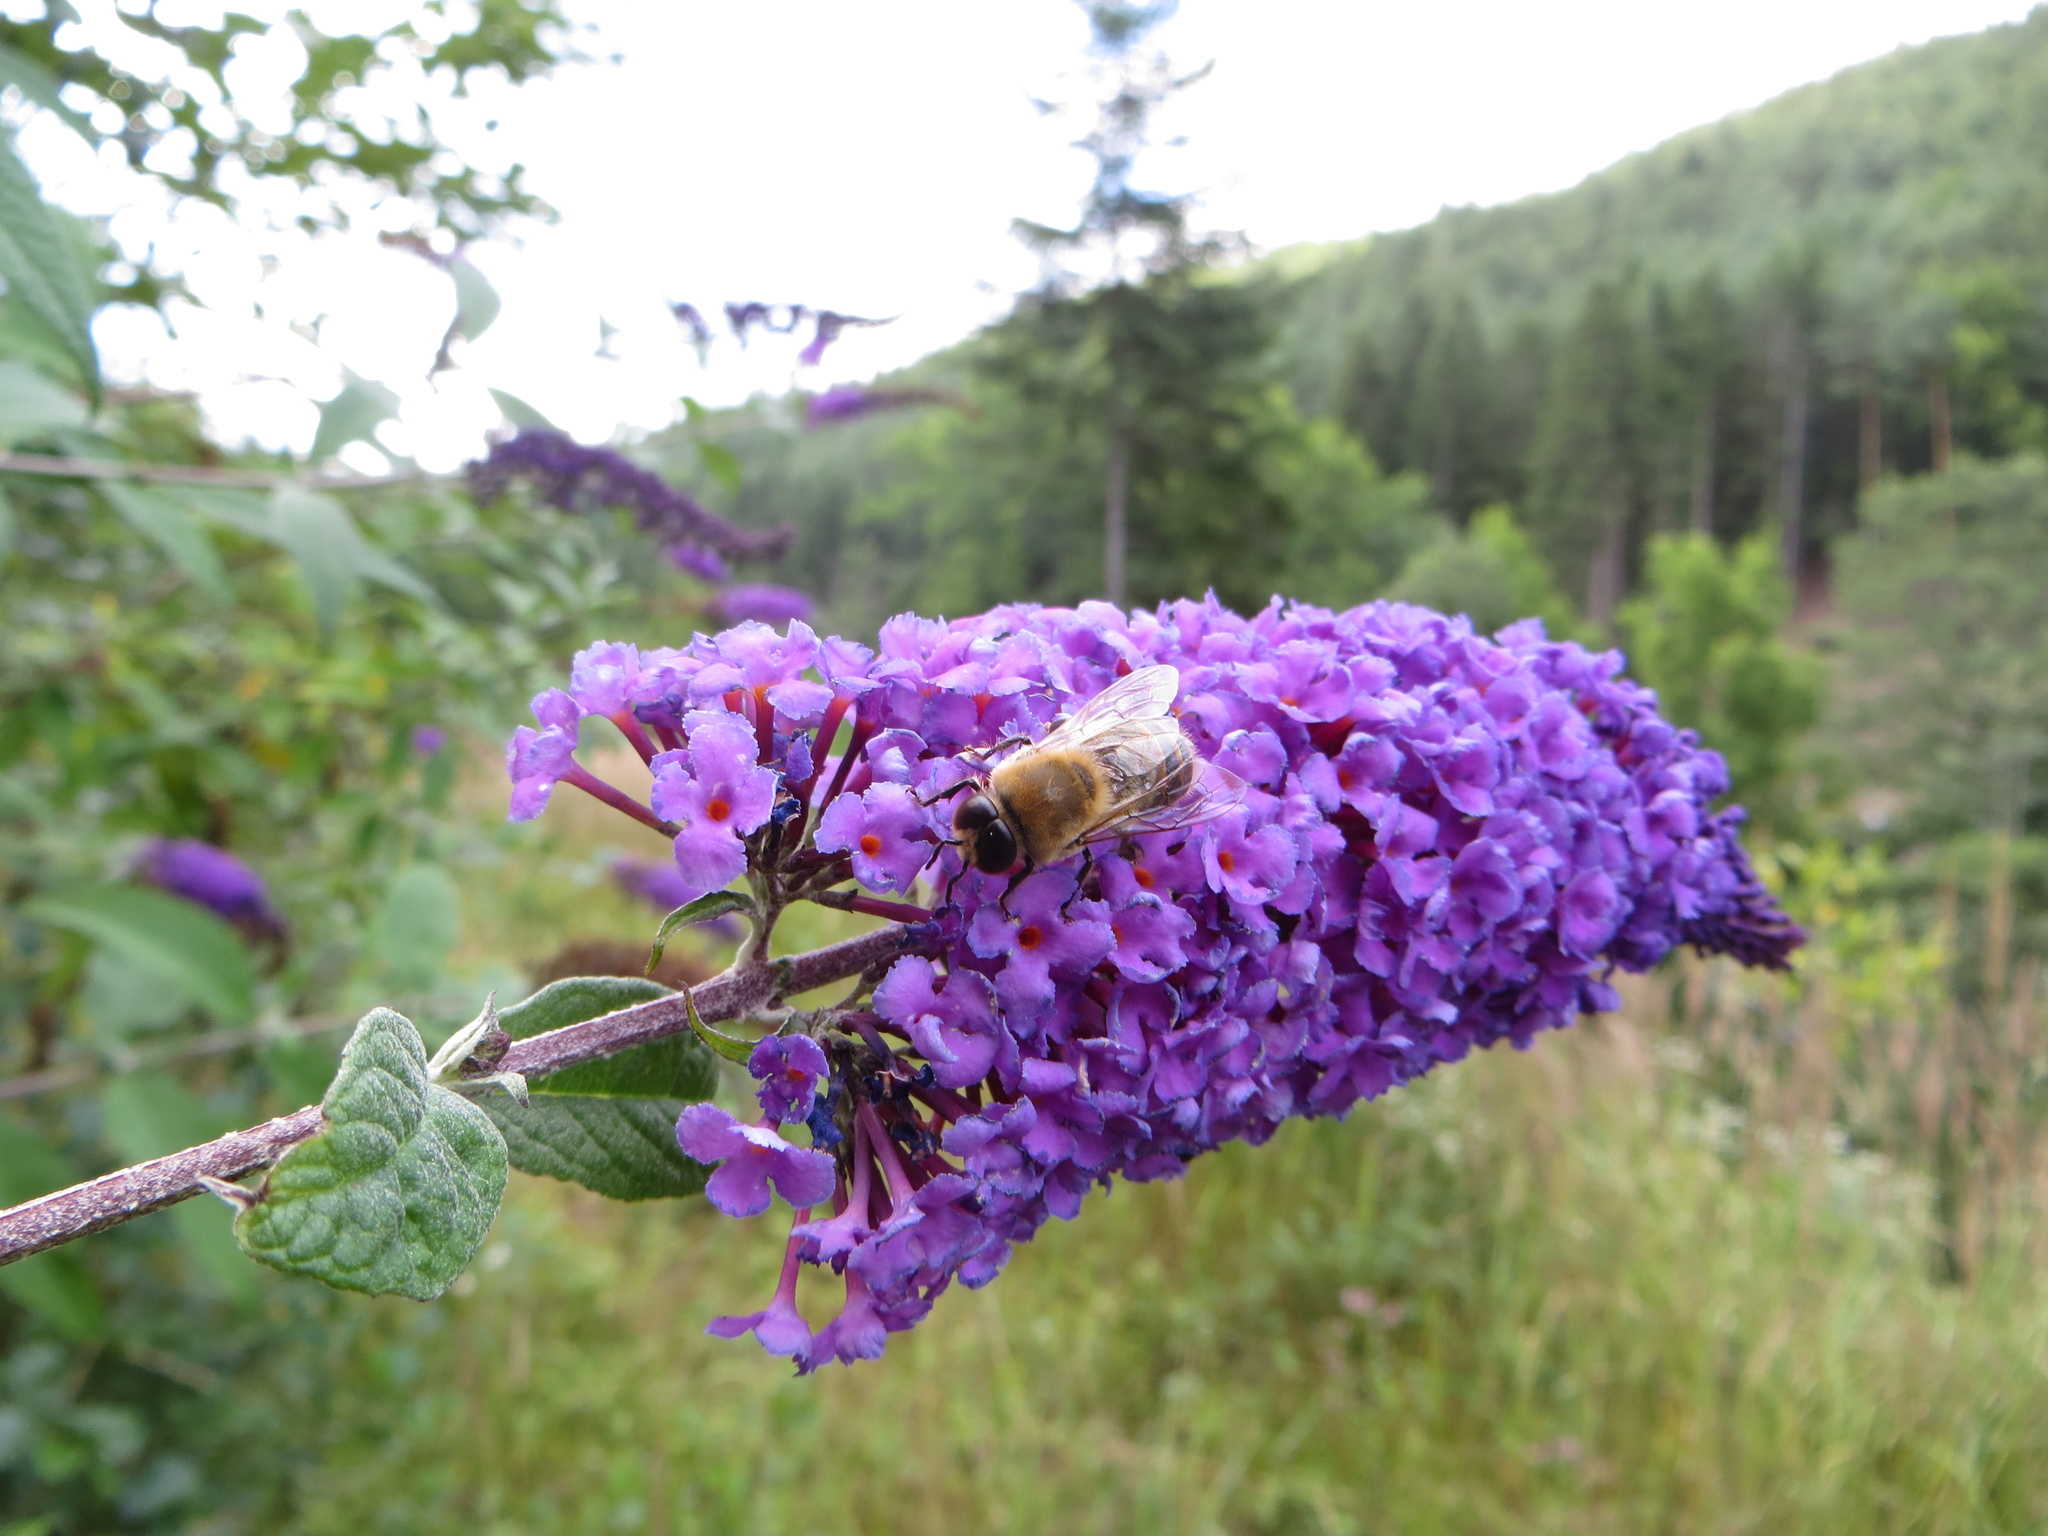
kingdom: Animalia
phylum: Arthropoda
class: Insecta
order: Hymenoptera
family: Apidae
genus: Apis
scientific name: Apis mellifera
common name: Honey bee
